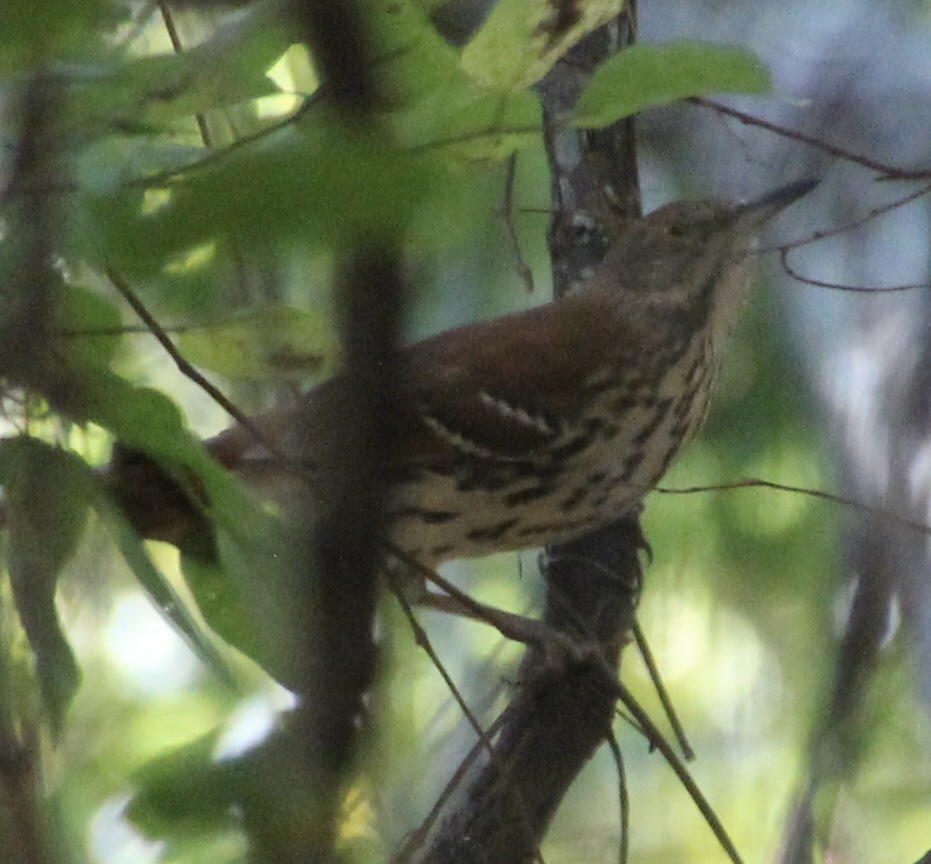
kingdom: Animalia
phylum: Chordata
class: Aves
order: Passeriformes
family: Mimidae
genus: Toxostoma
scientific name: Toxostoma rufum
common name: Brown thrasher
